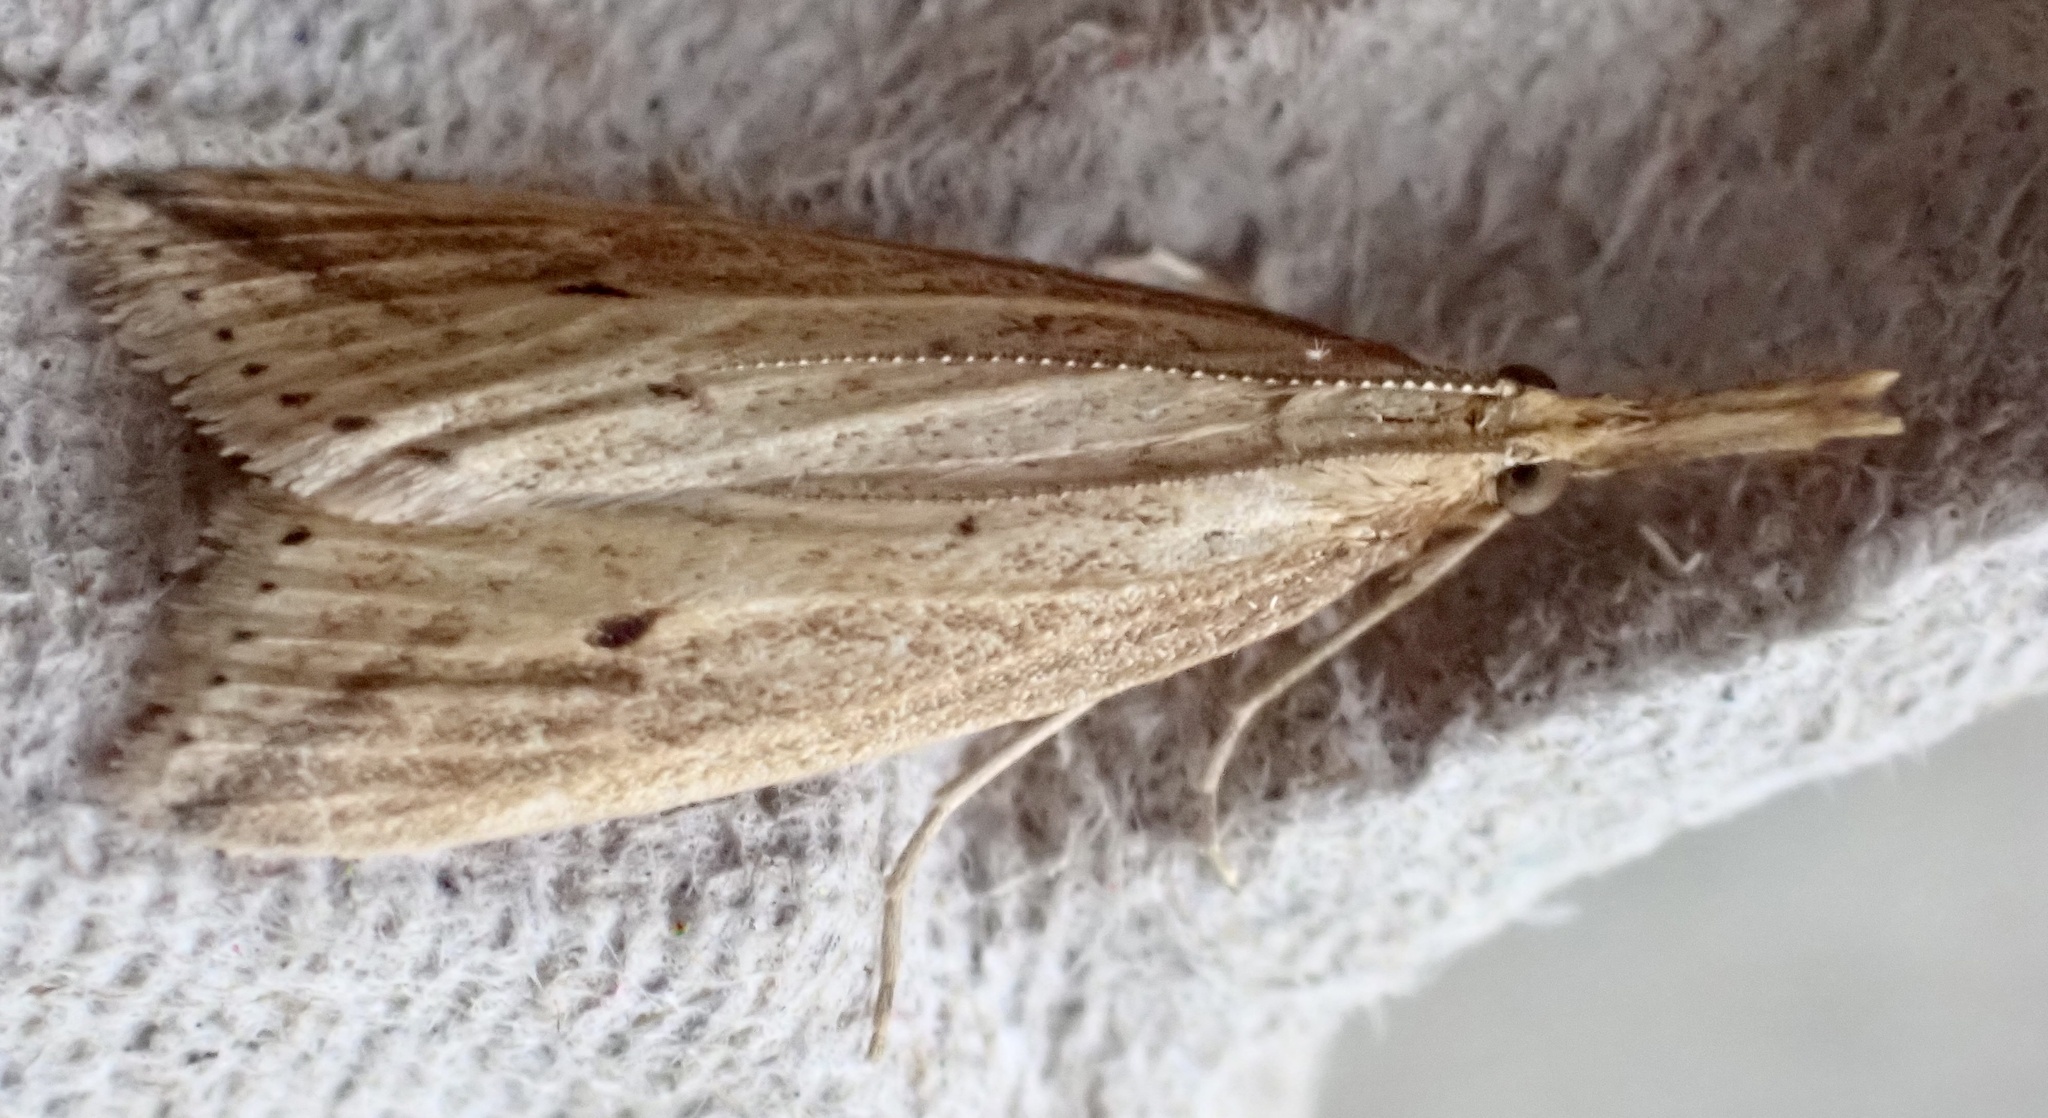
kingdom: Animalia
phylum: Arthropoda
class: Insecta
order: Lepidoptera
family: Crambidae
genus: Donacaula
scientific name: Donacaula forficella
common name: Pale water-veneer
